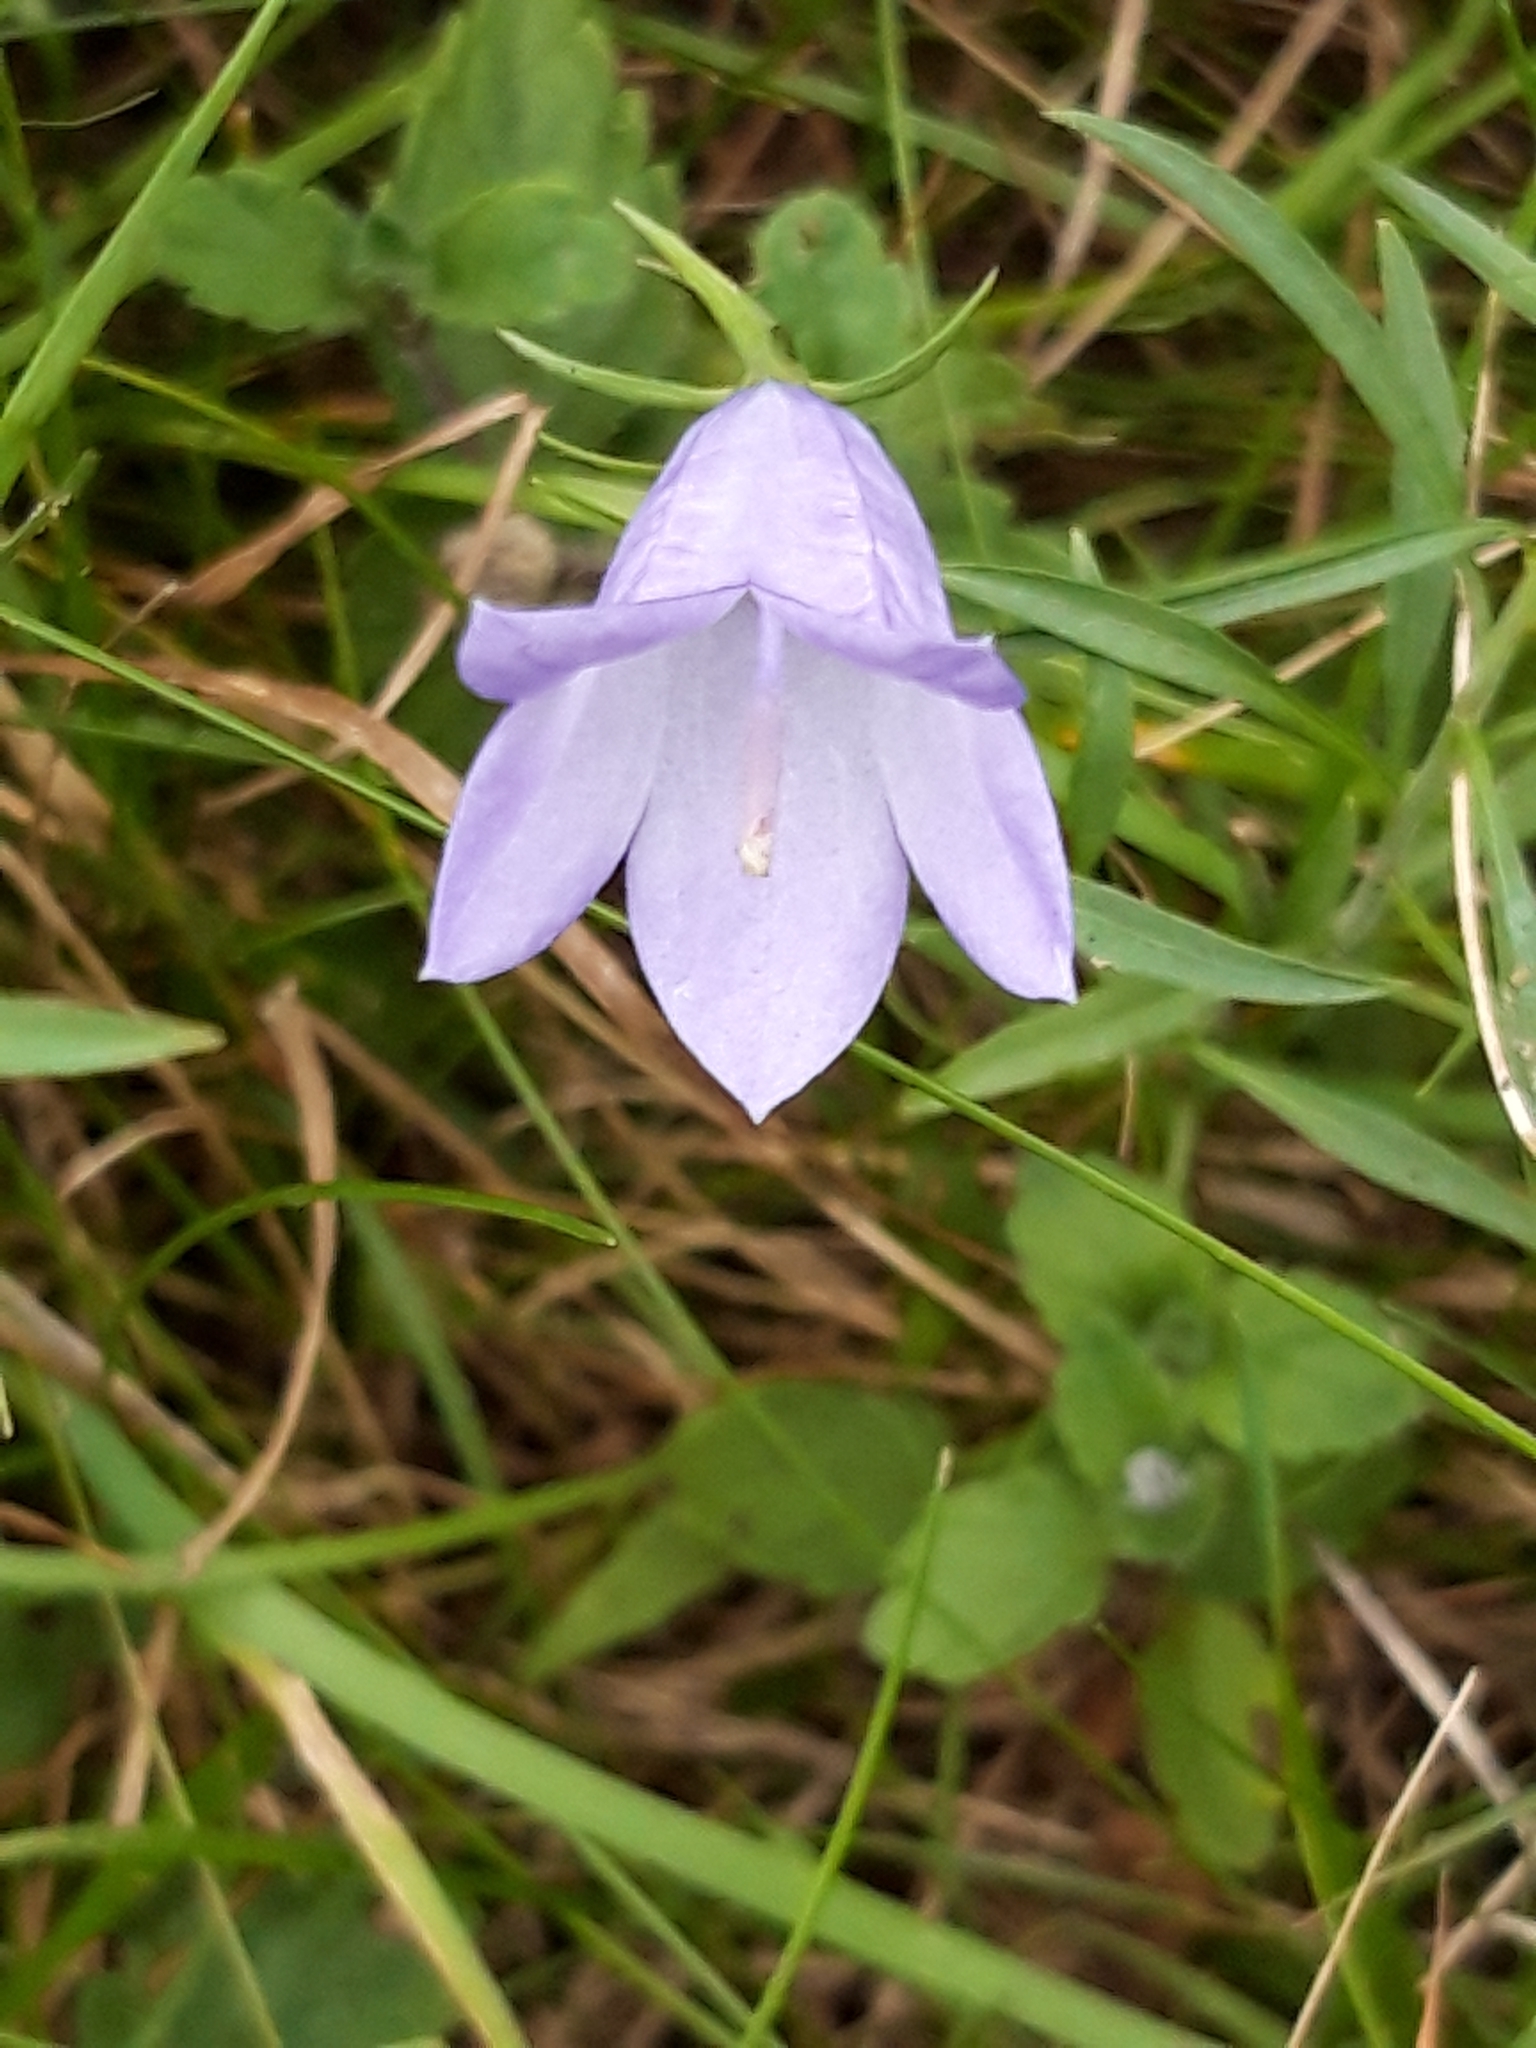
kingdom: Plantae
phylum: Tracheophyta
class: Magnoliopsida
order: Asterales
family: Campanulaceae
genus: Campanula
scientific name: Campanula rotundifolia
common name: Harebell
